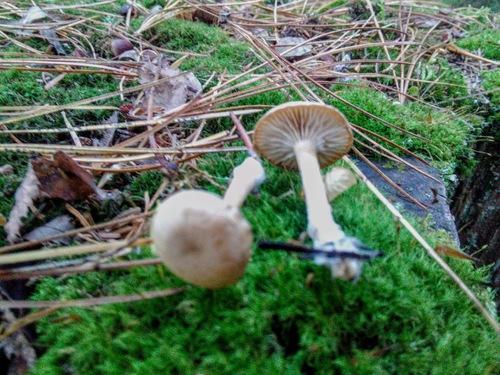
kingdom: Fungi
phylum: Basidiomycota
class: Agaricomycetes
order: Agaricales
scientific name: Agaricales
